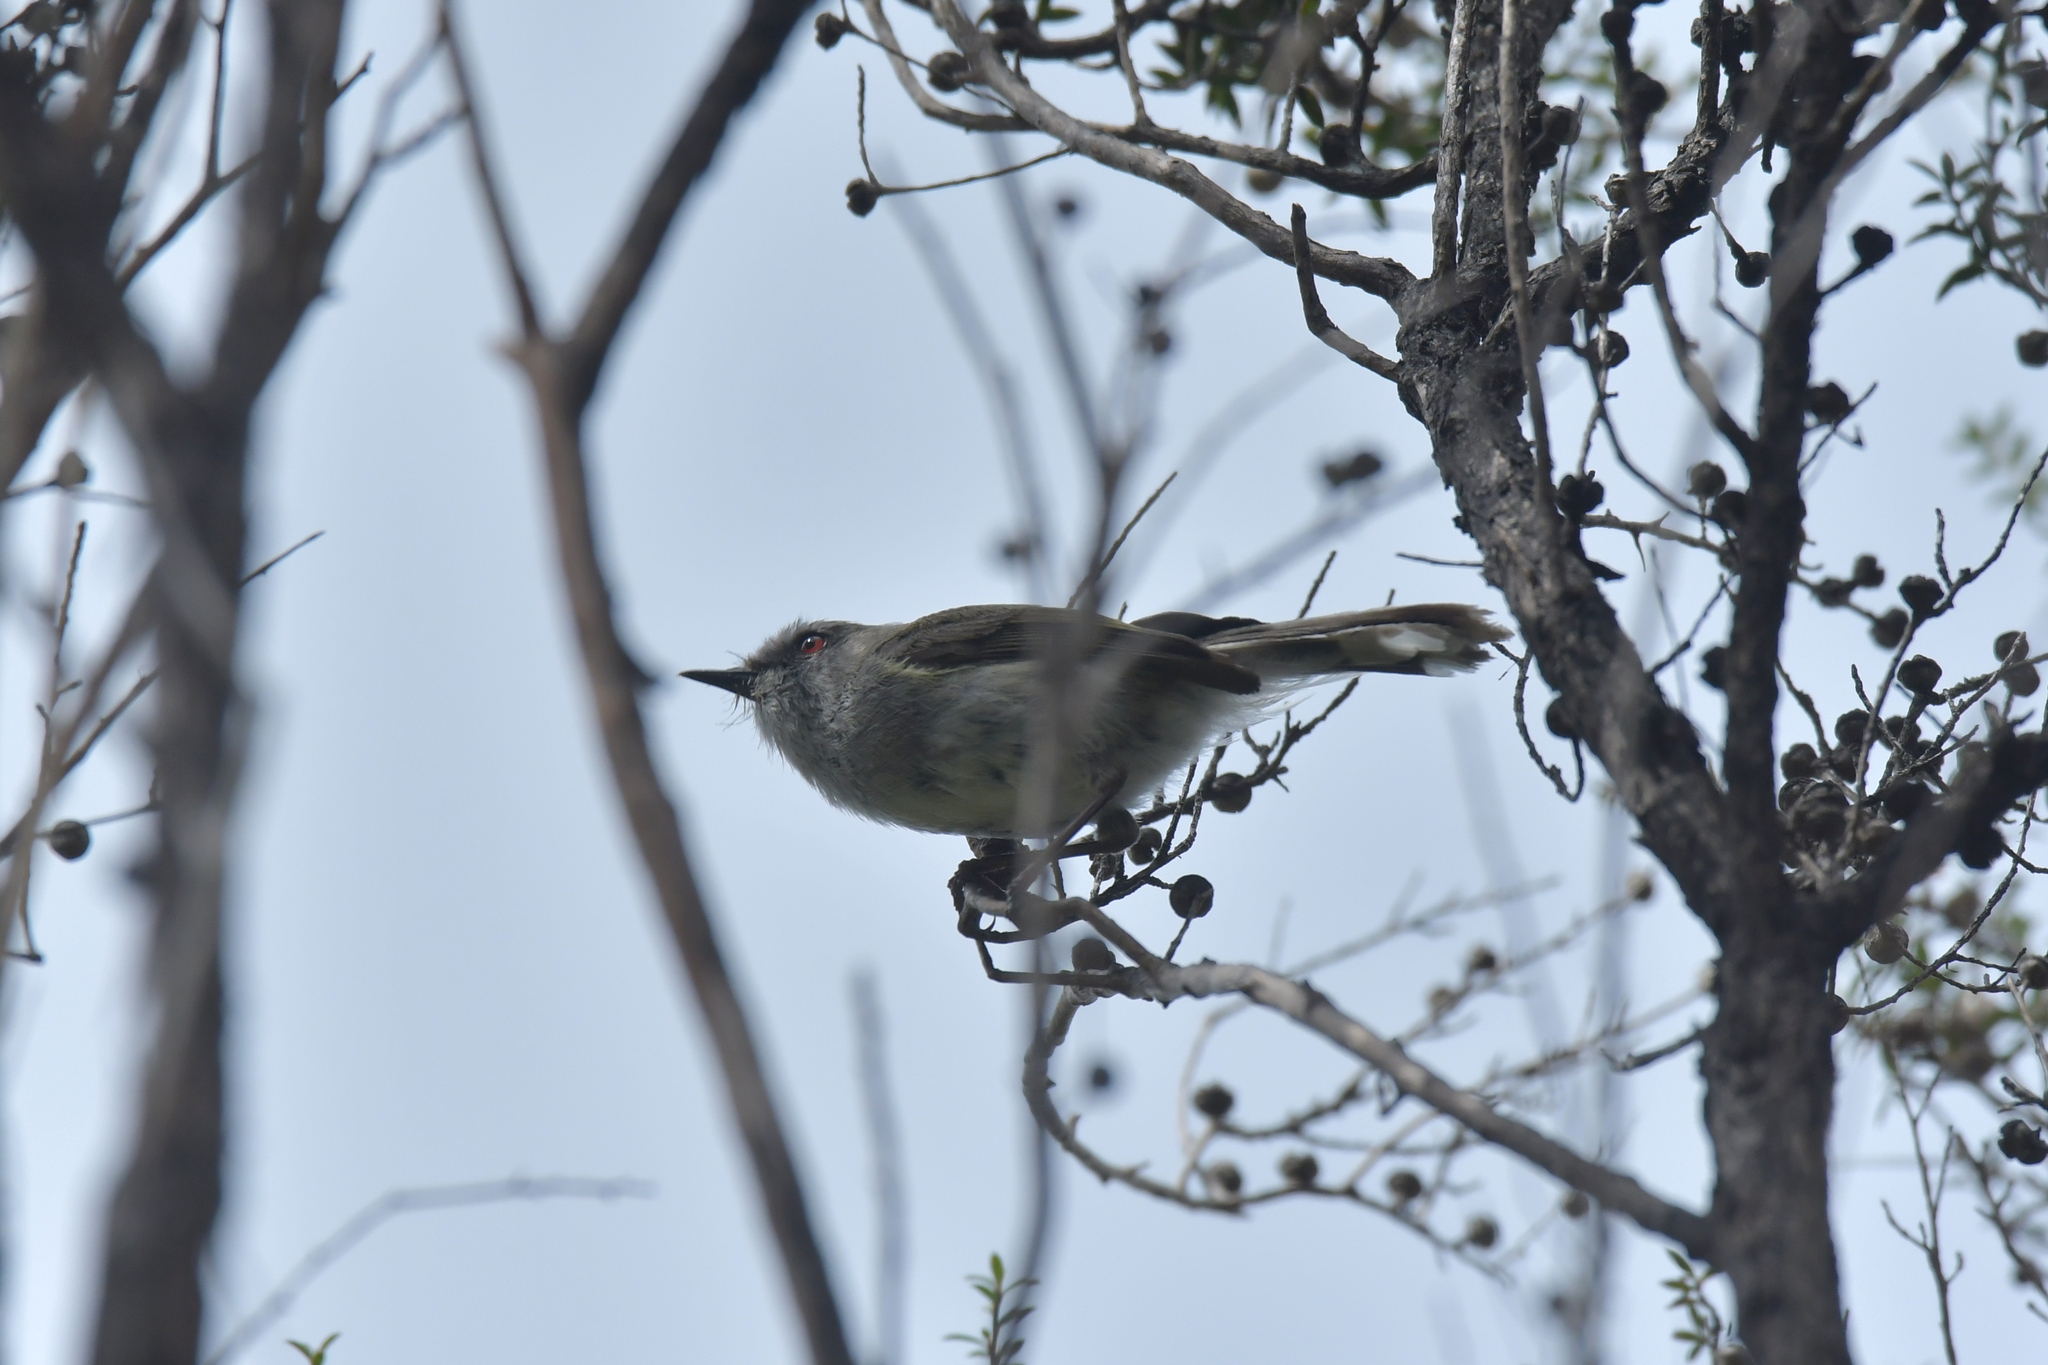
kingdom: Animalia
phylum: Chordata
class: Aves
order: Passeriformes
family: Acanthizidae
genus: Gerygone
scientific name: Gerygone igata
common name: Grey gerygone
